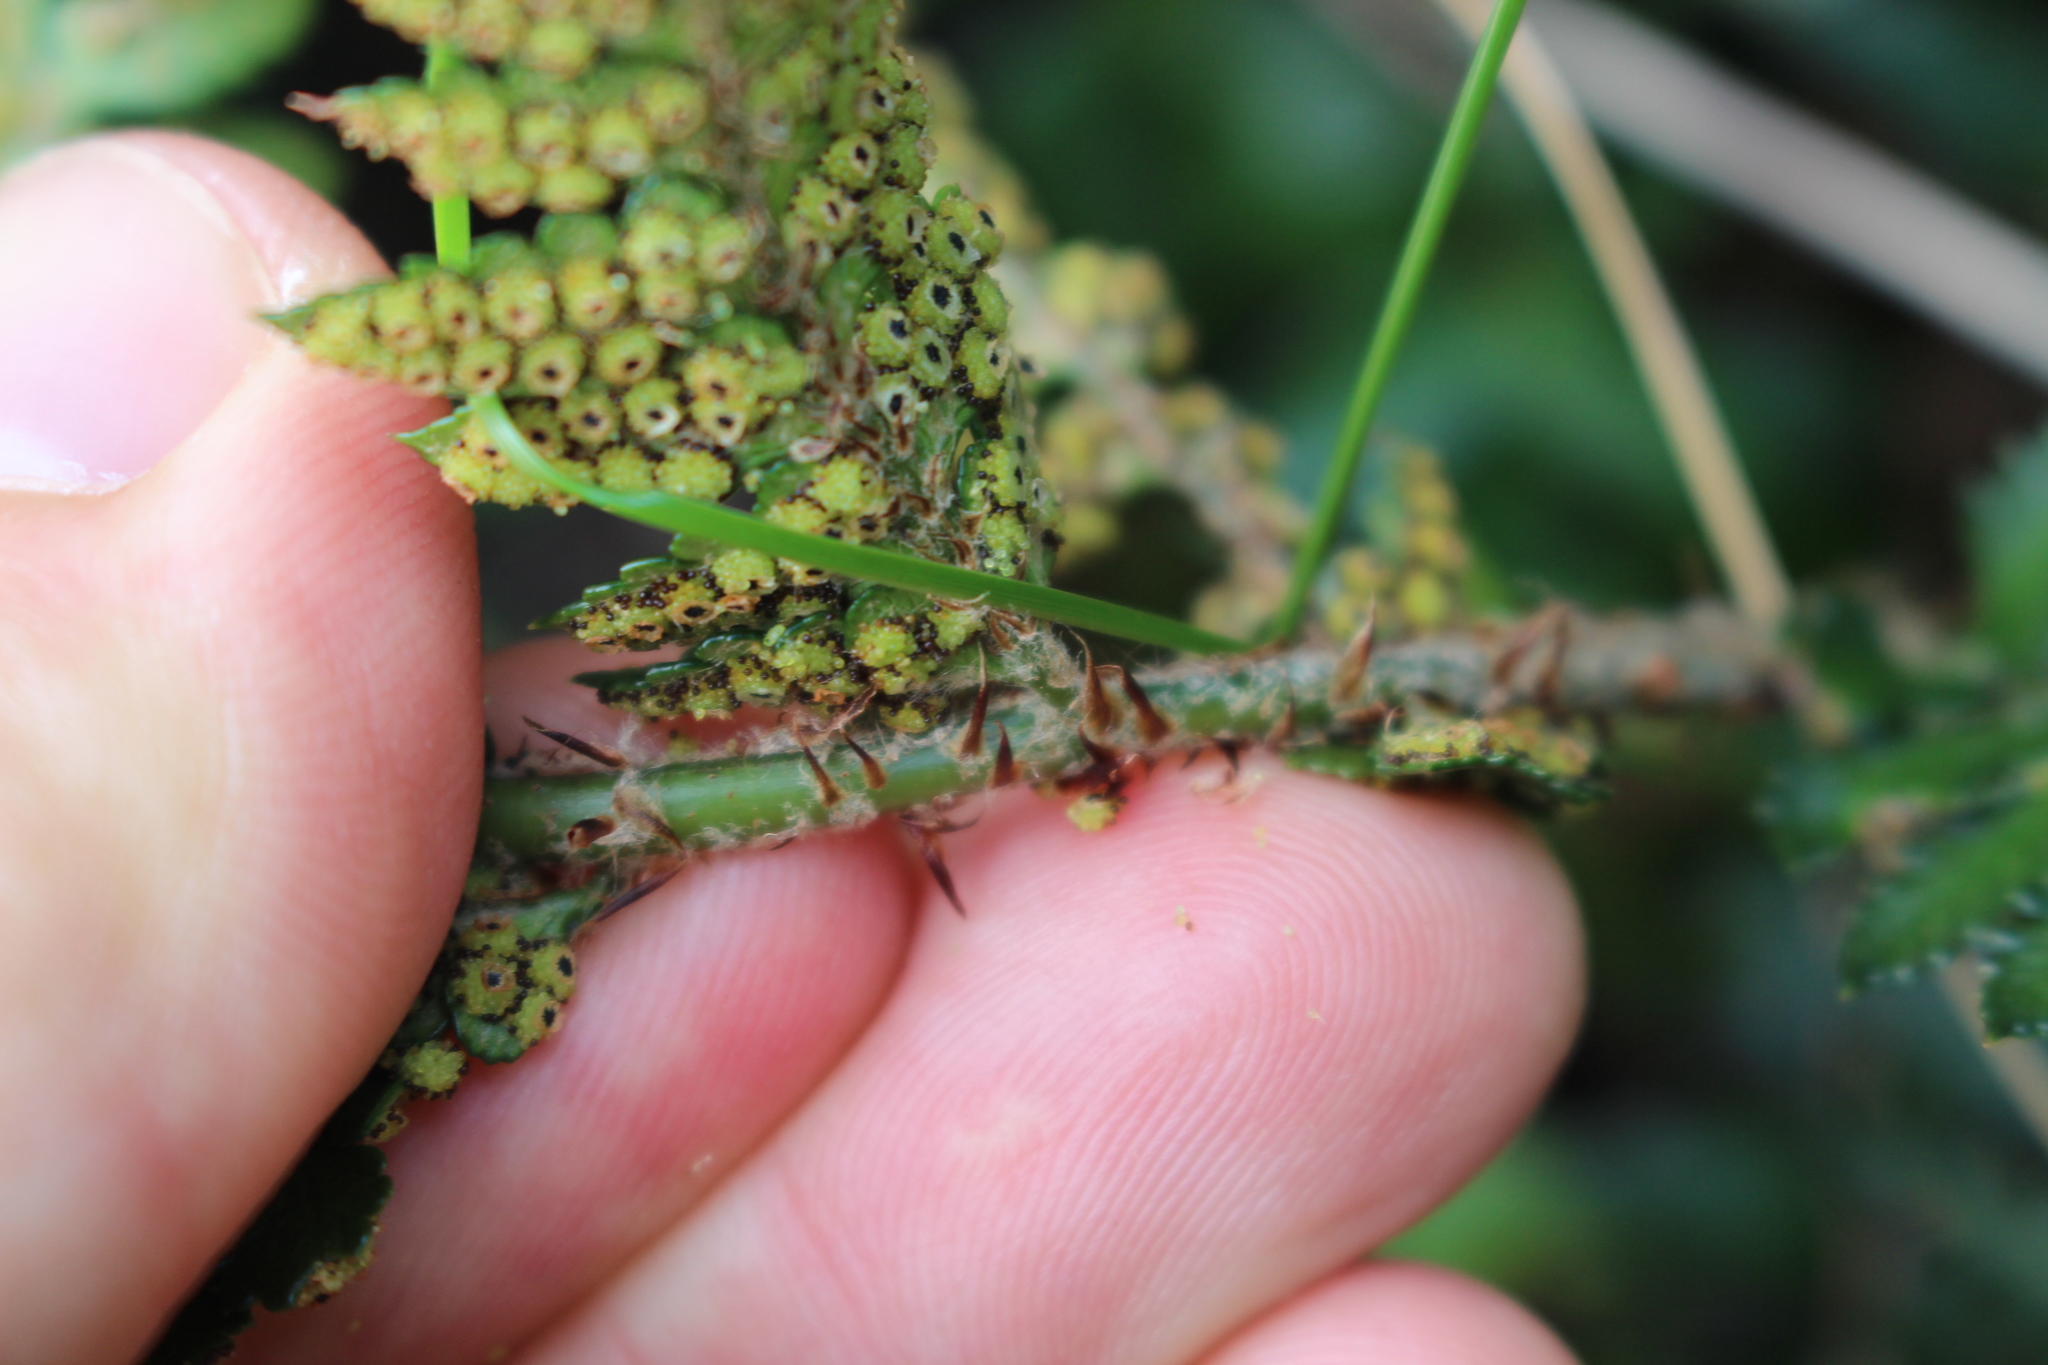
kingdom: Plantae
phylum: Tracheophyta
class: Polypodiopsida
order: Polypodiales
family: Dryopteridaceae
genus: Polystichum
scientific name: Polystichum oculatum
